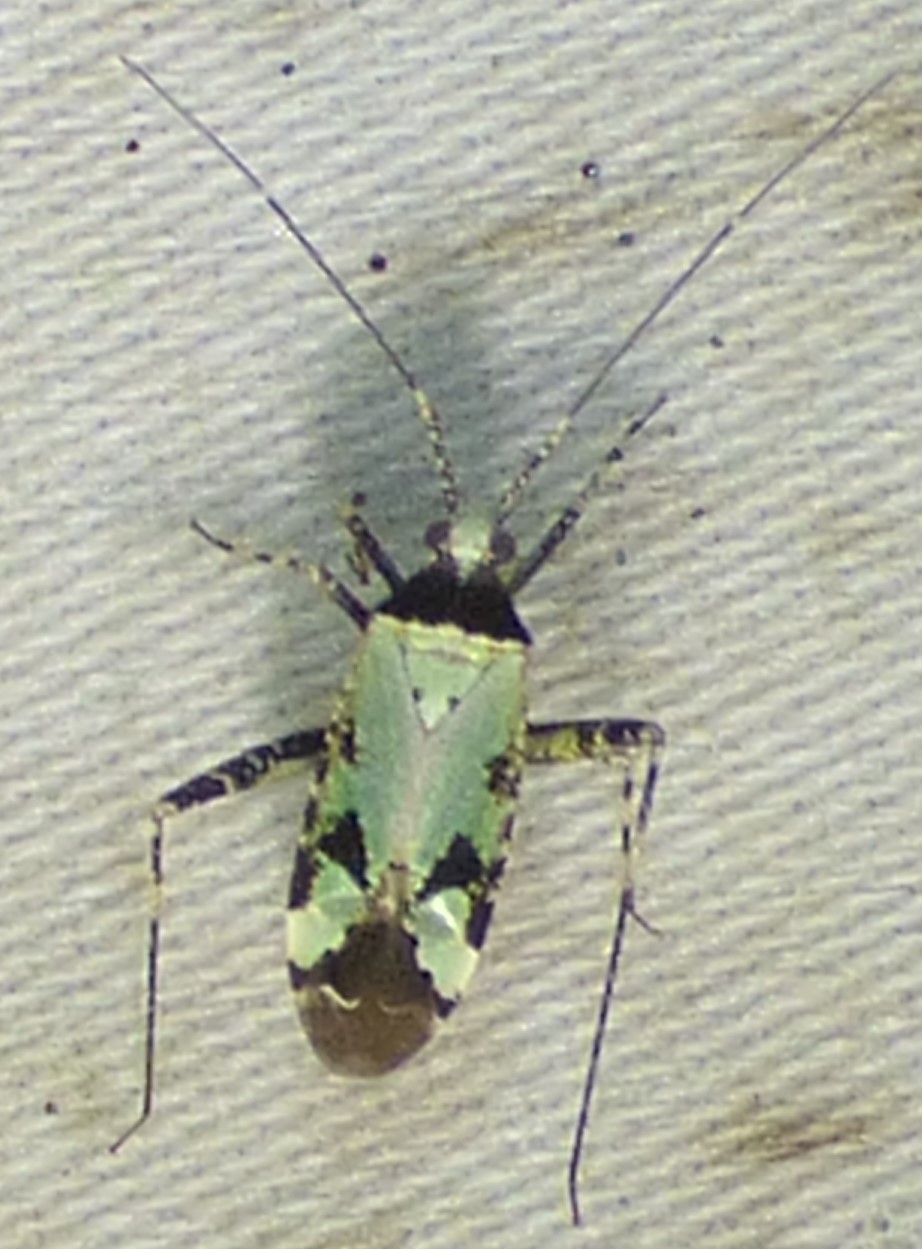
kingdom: Animalia
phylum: Arthropoda
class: Insecta
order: Hemiptera
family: Miridae
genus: Phytocoris
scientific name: Phytocoris nigricollis
